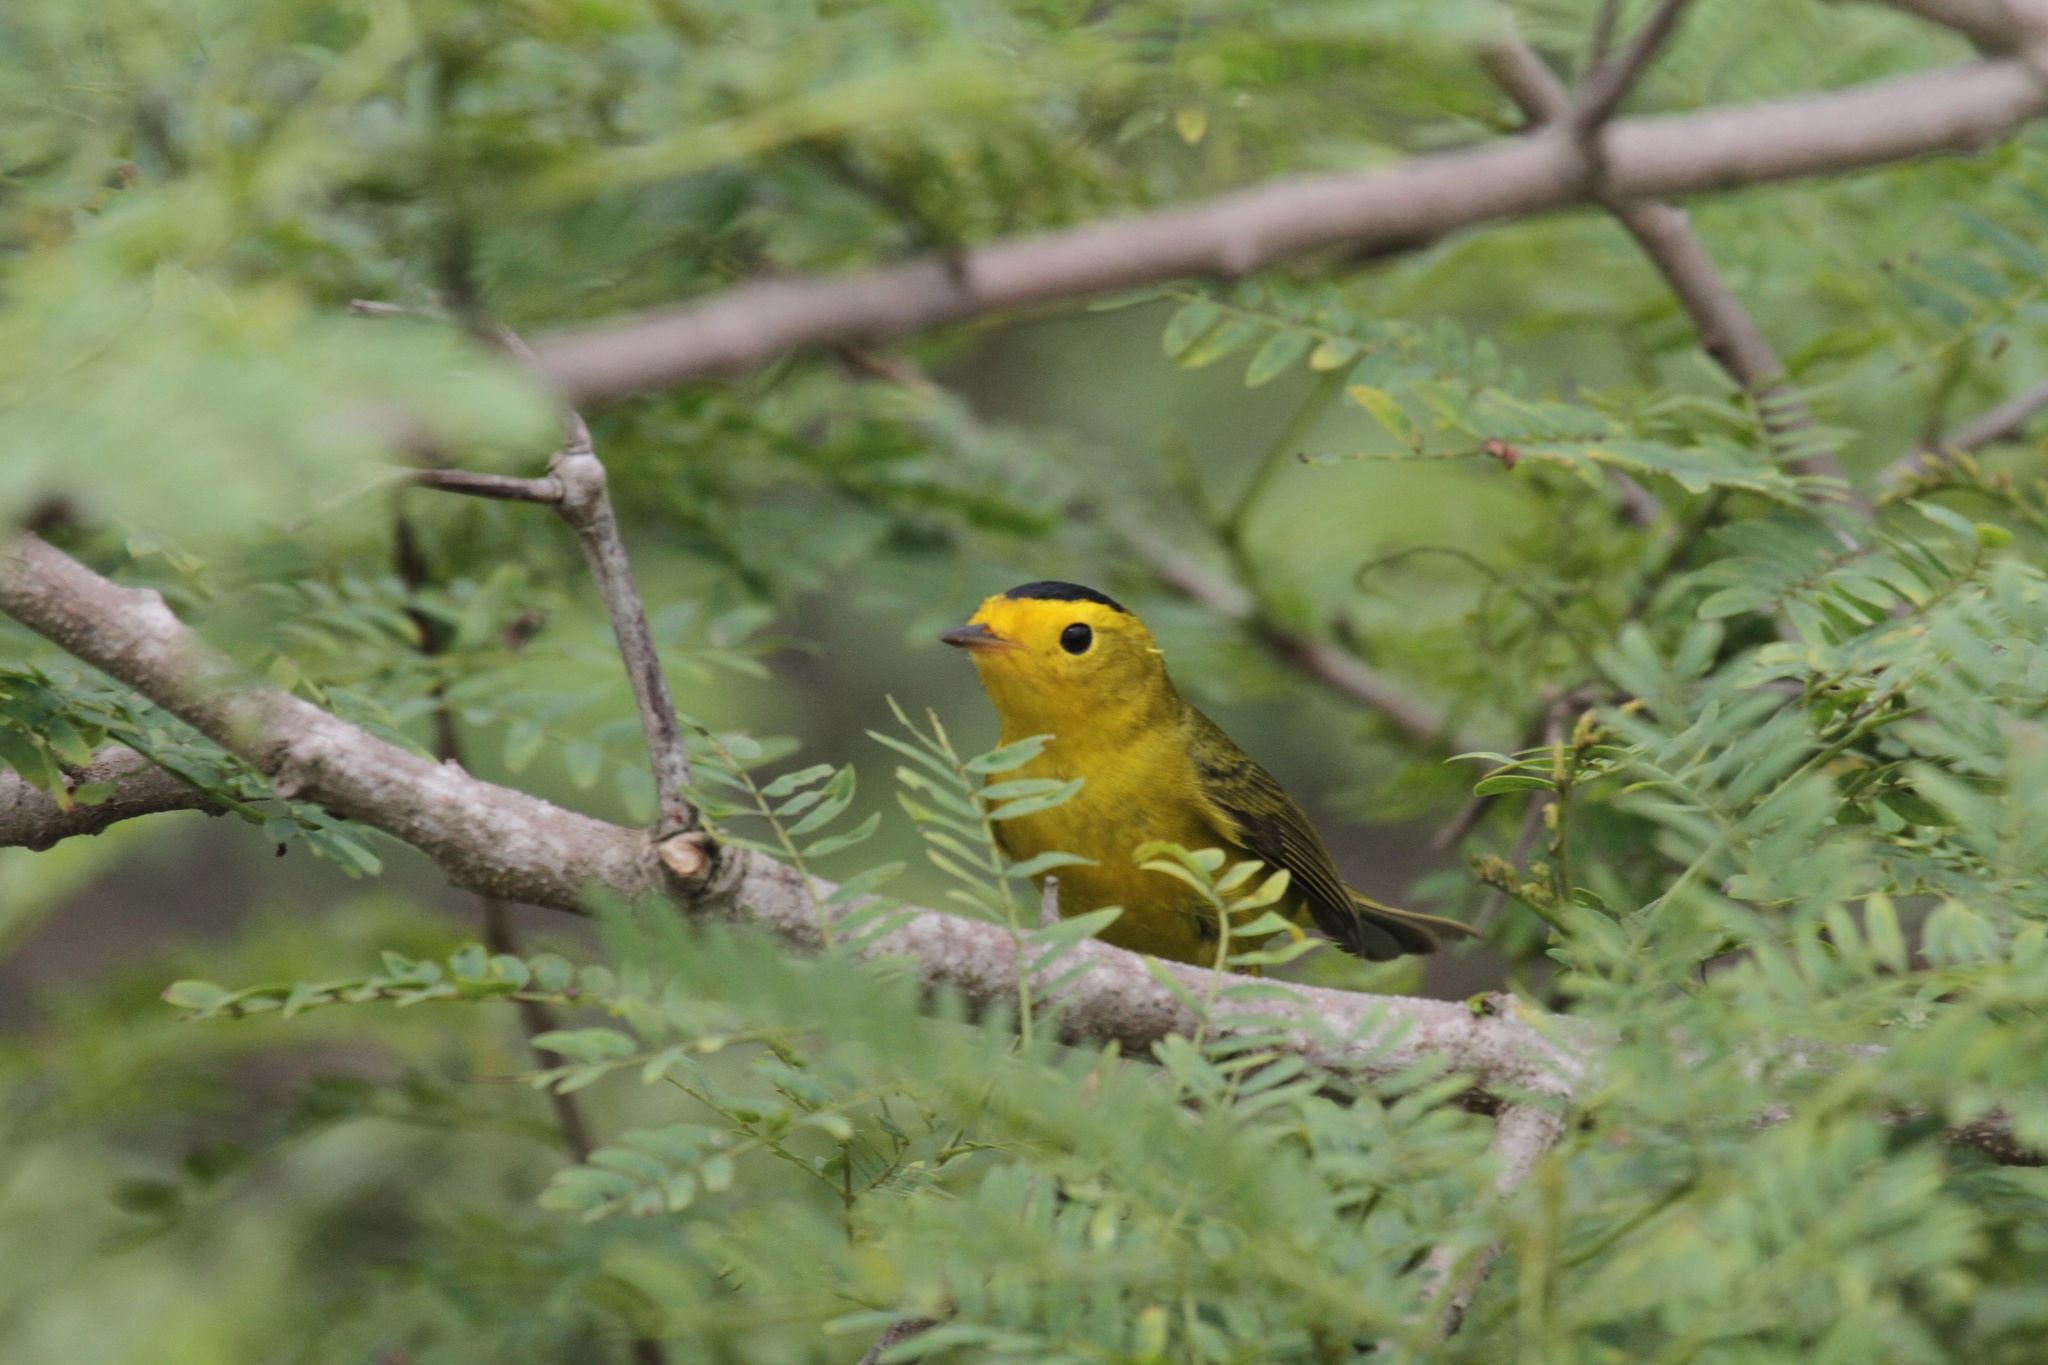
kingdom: Animalia
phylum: Chordata
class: Aves
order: Passeriformes
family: Parulidae
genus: Cardellina
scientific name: Cardellina pusilla
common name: Wilson's warbler
